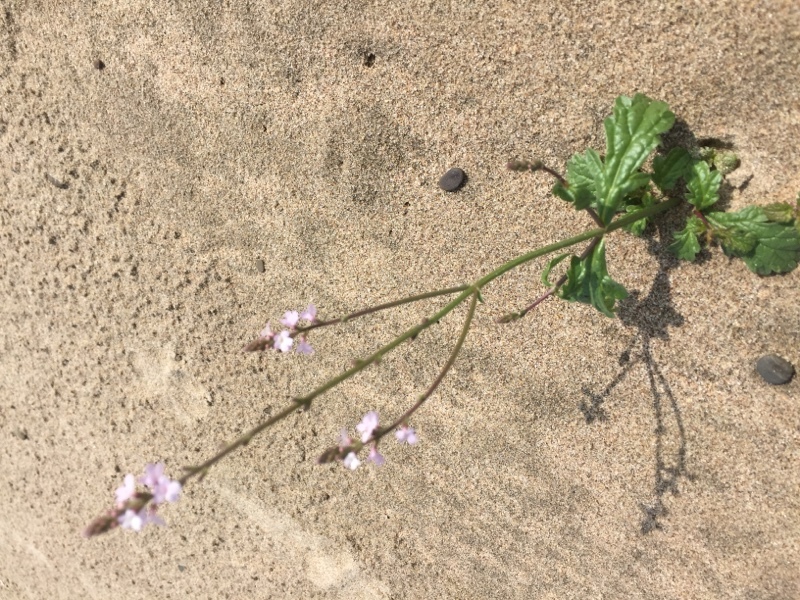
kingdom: Plantae
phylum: Tracheophyta
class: Magnoliopsida
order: Lamiales
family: Verbenaceae
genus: Verbena
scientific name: Verbena officinalis
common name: Vervain
